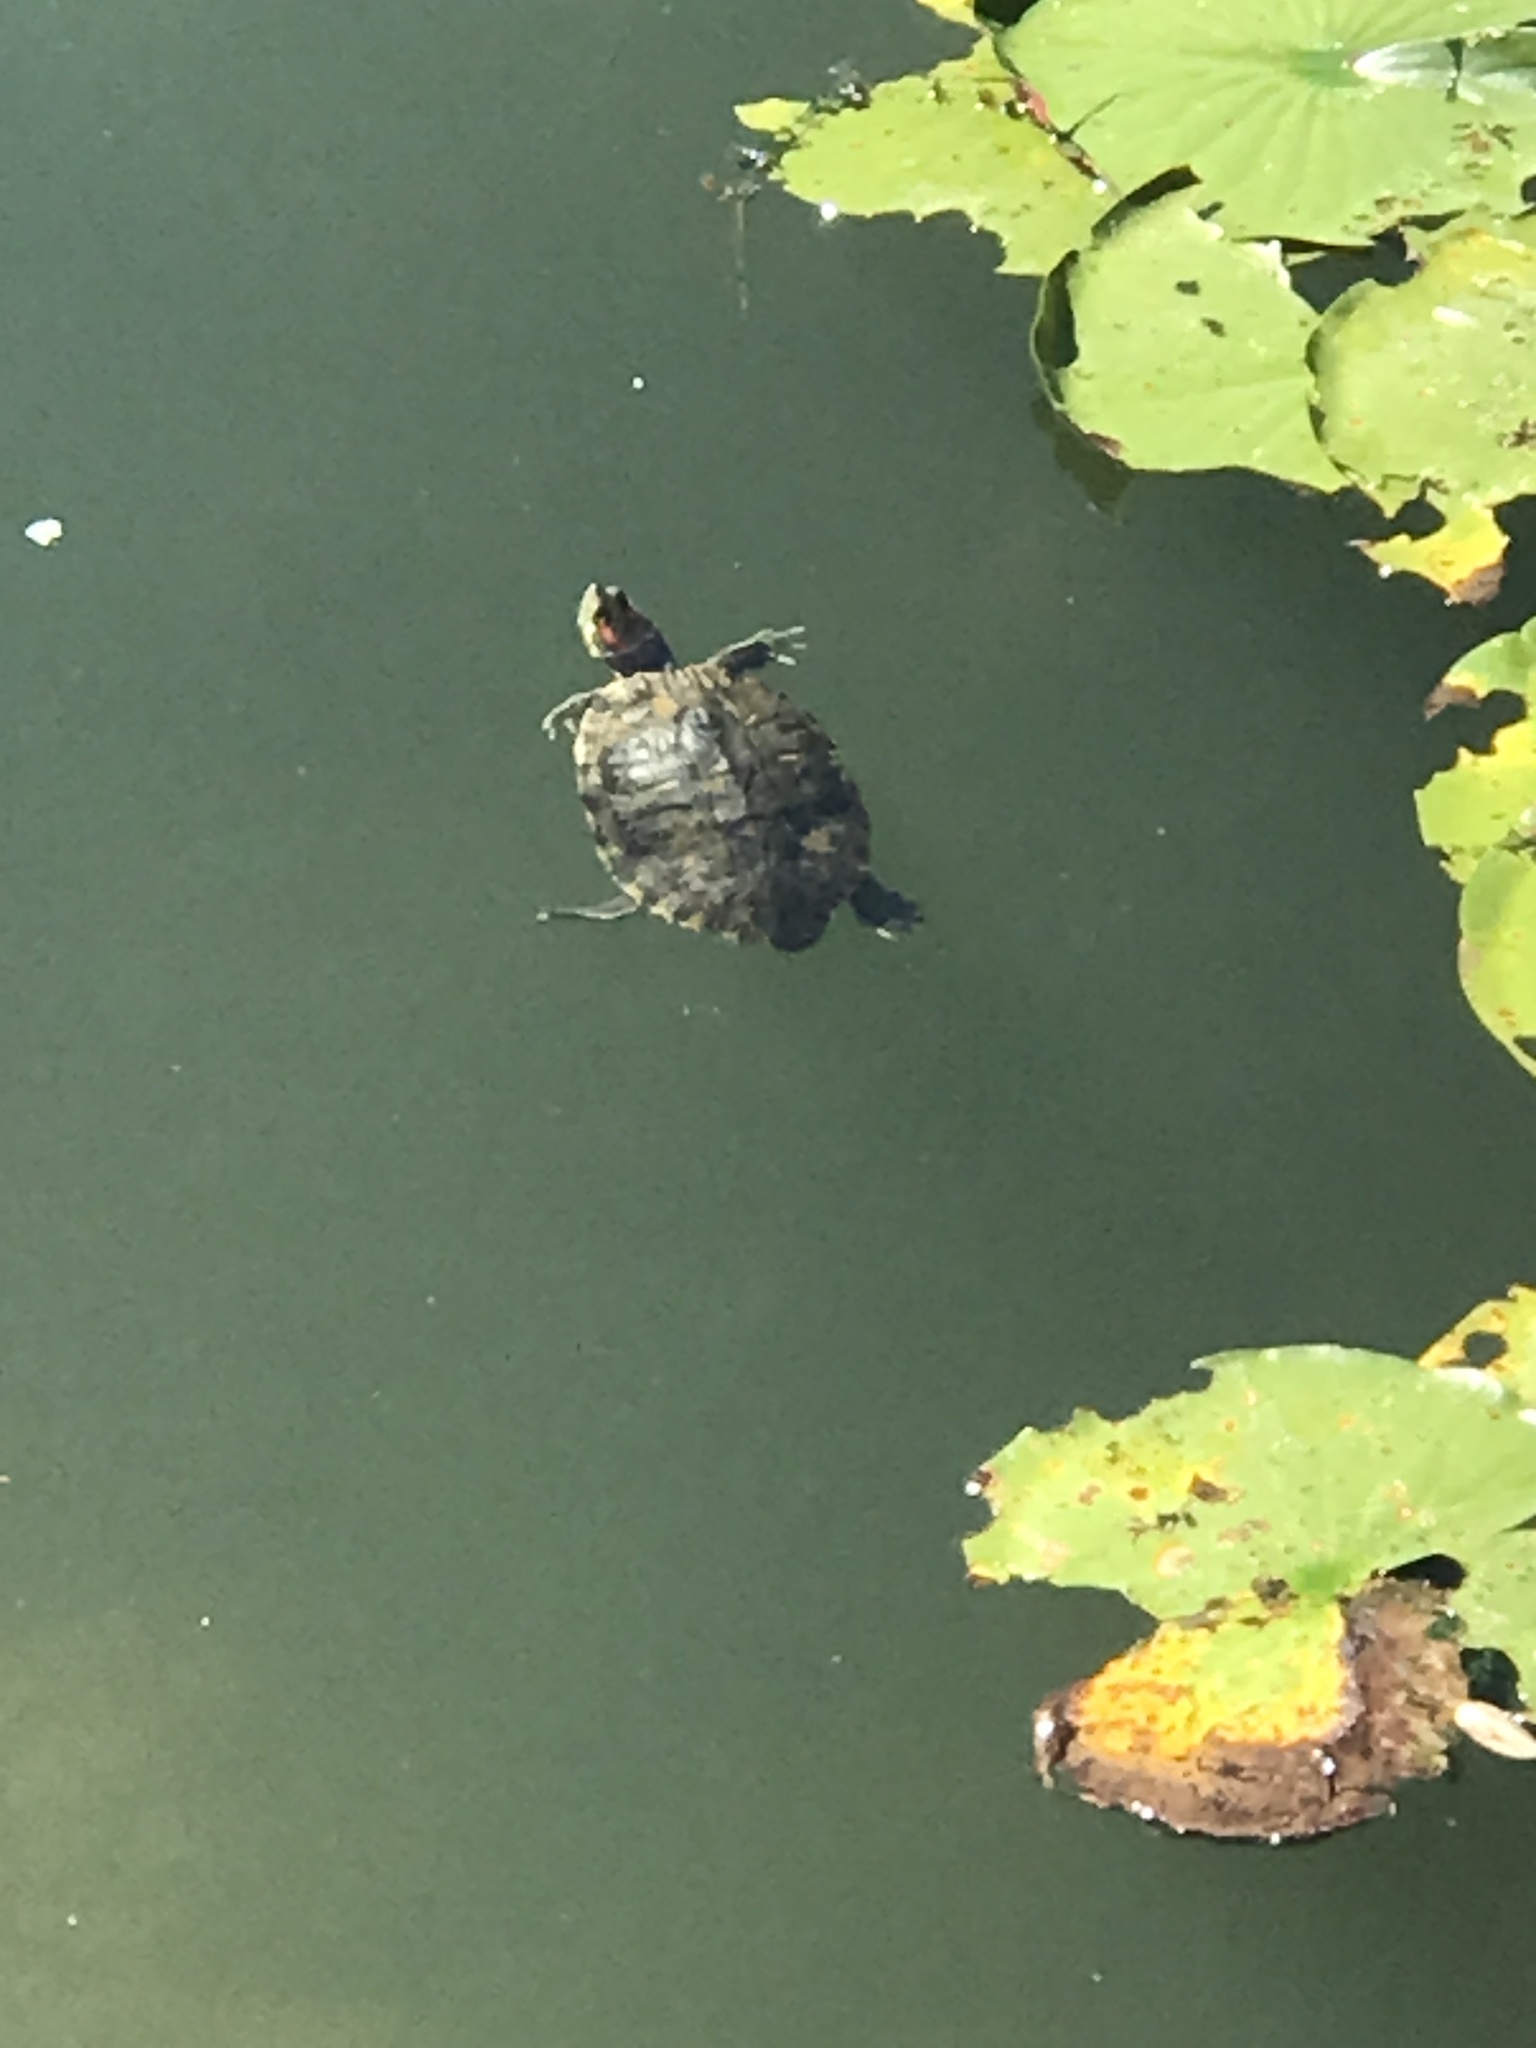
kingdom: Animalia
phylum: Chordata
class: Testudines
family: Emydidae
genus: Trachemys
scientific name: Trachemys scripta
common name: Slider
